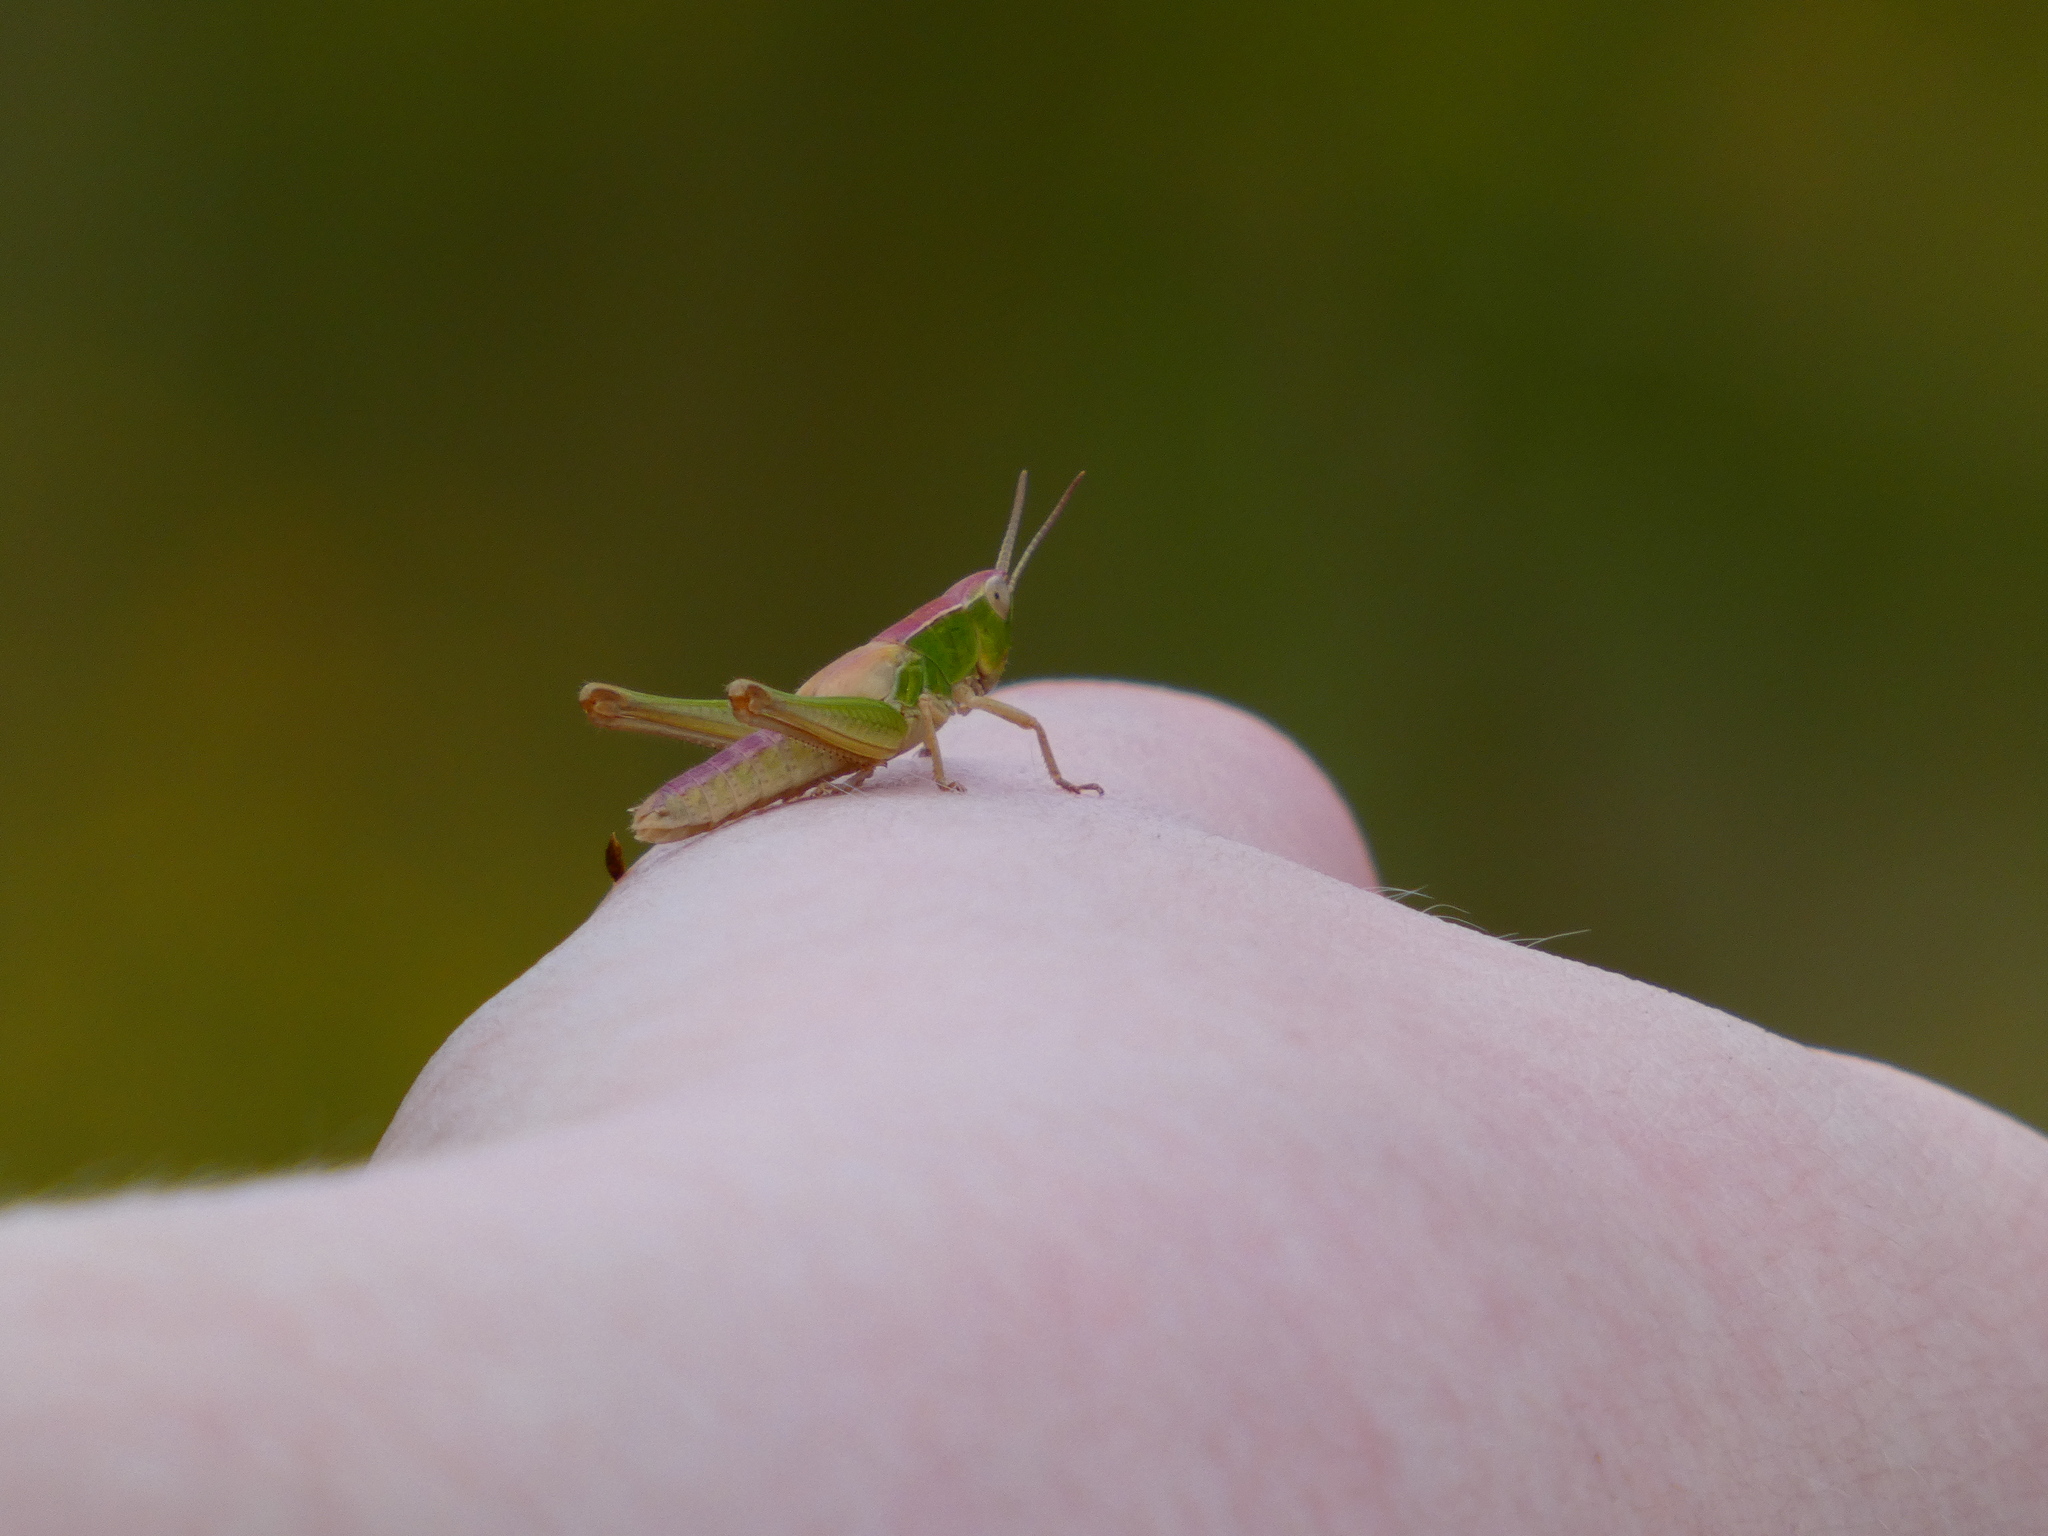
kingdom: Animalia
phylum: Arthropoda
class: Insecta
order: Orthoptera
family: Acrididae
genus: Chorthippus
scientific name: Chorthippus albomarginatus
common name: Lesser marsh grasshopper
